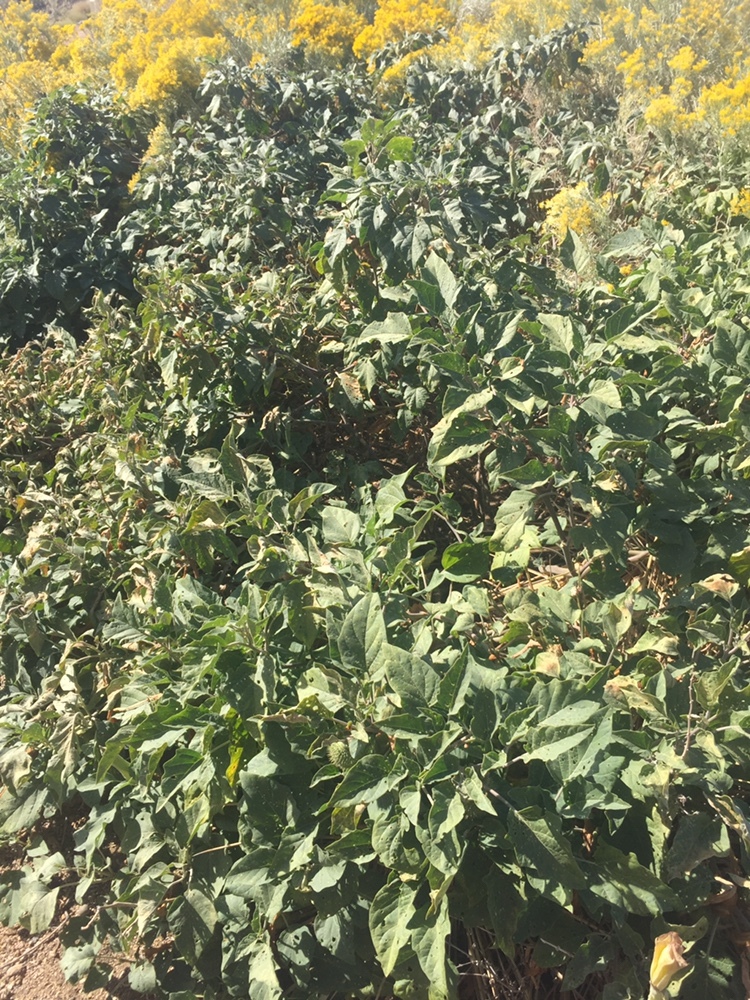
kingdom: Plantae
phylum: Tracheophyta
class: Magnoliopsida
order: Solanales
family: Solanaceae
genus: Datura
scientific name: Datura wrightii
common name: Sacred thorn-apple
